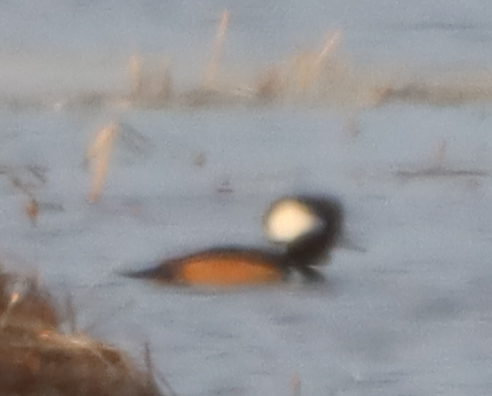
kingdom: Animalia
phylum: Chordata
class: Aves
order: Anseriformes
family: Anatidae
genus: Lophodytes
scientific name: Lophodytes cucullatus
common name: Hooded merganser
